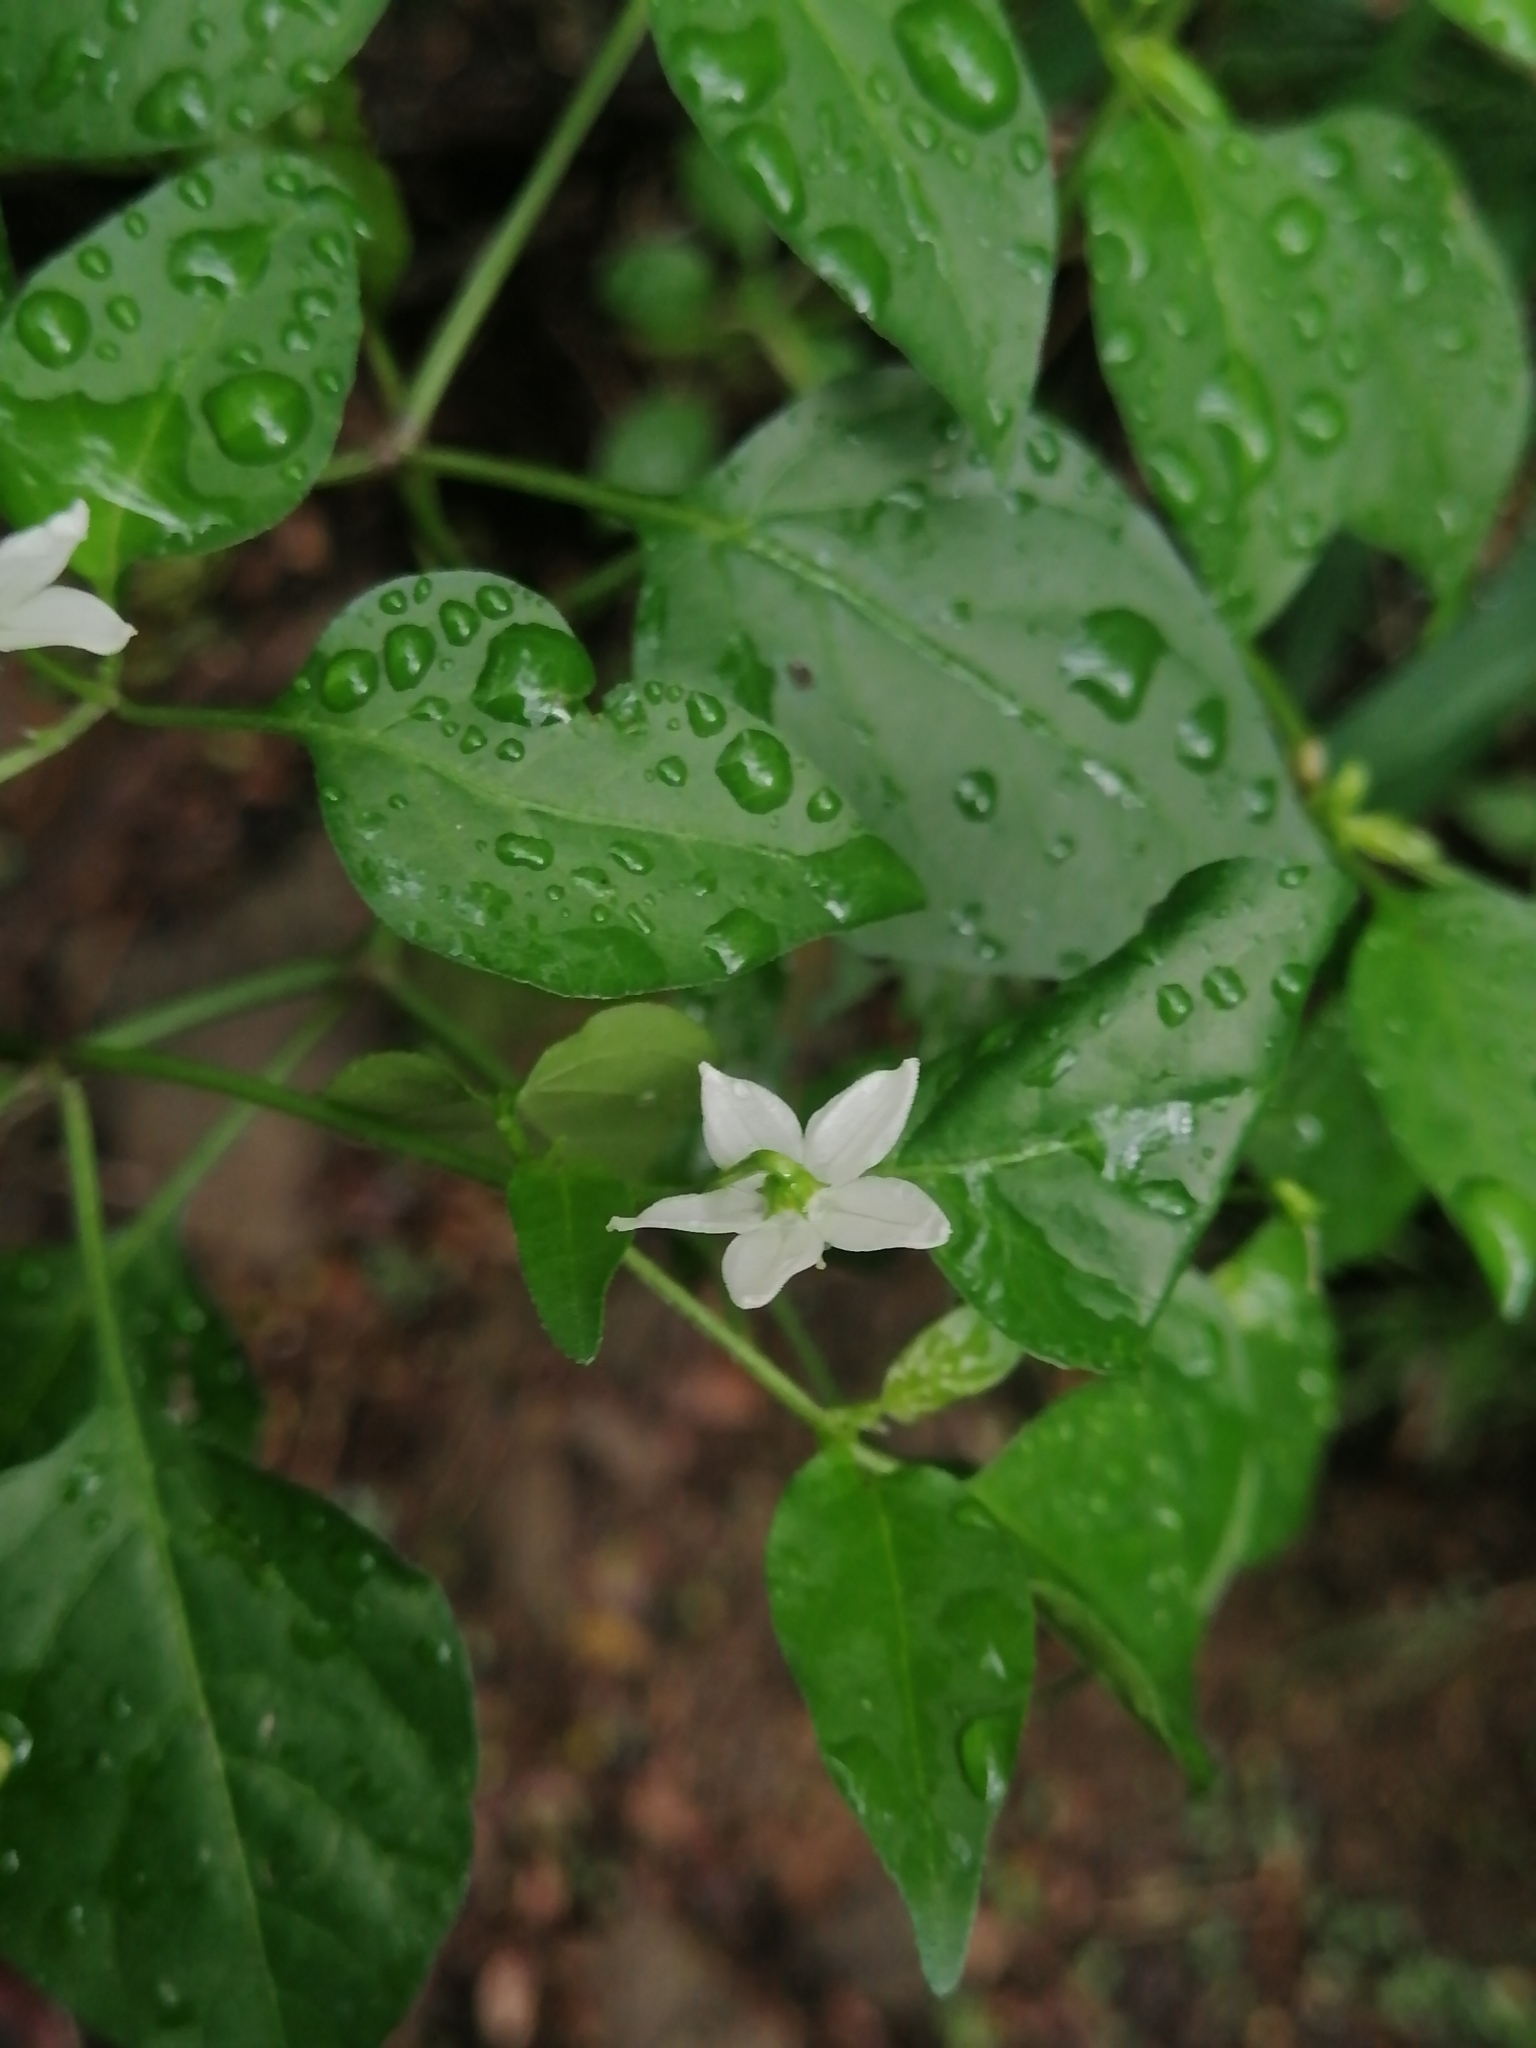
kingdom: Plantae
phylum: Tracheophyta
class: Magnoliopsida
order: Solanales
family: Solanaceae
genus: Capsicum
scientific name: Capsicum annuum
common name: Sweet pepper
